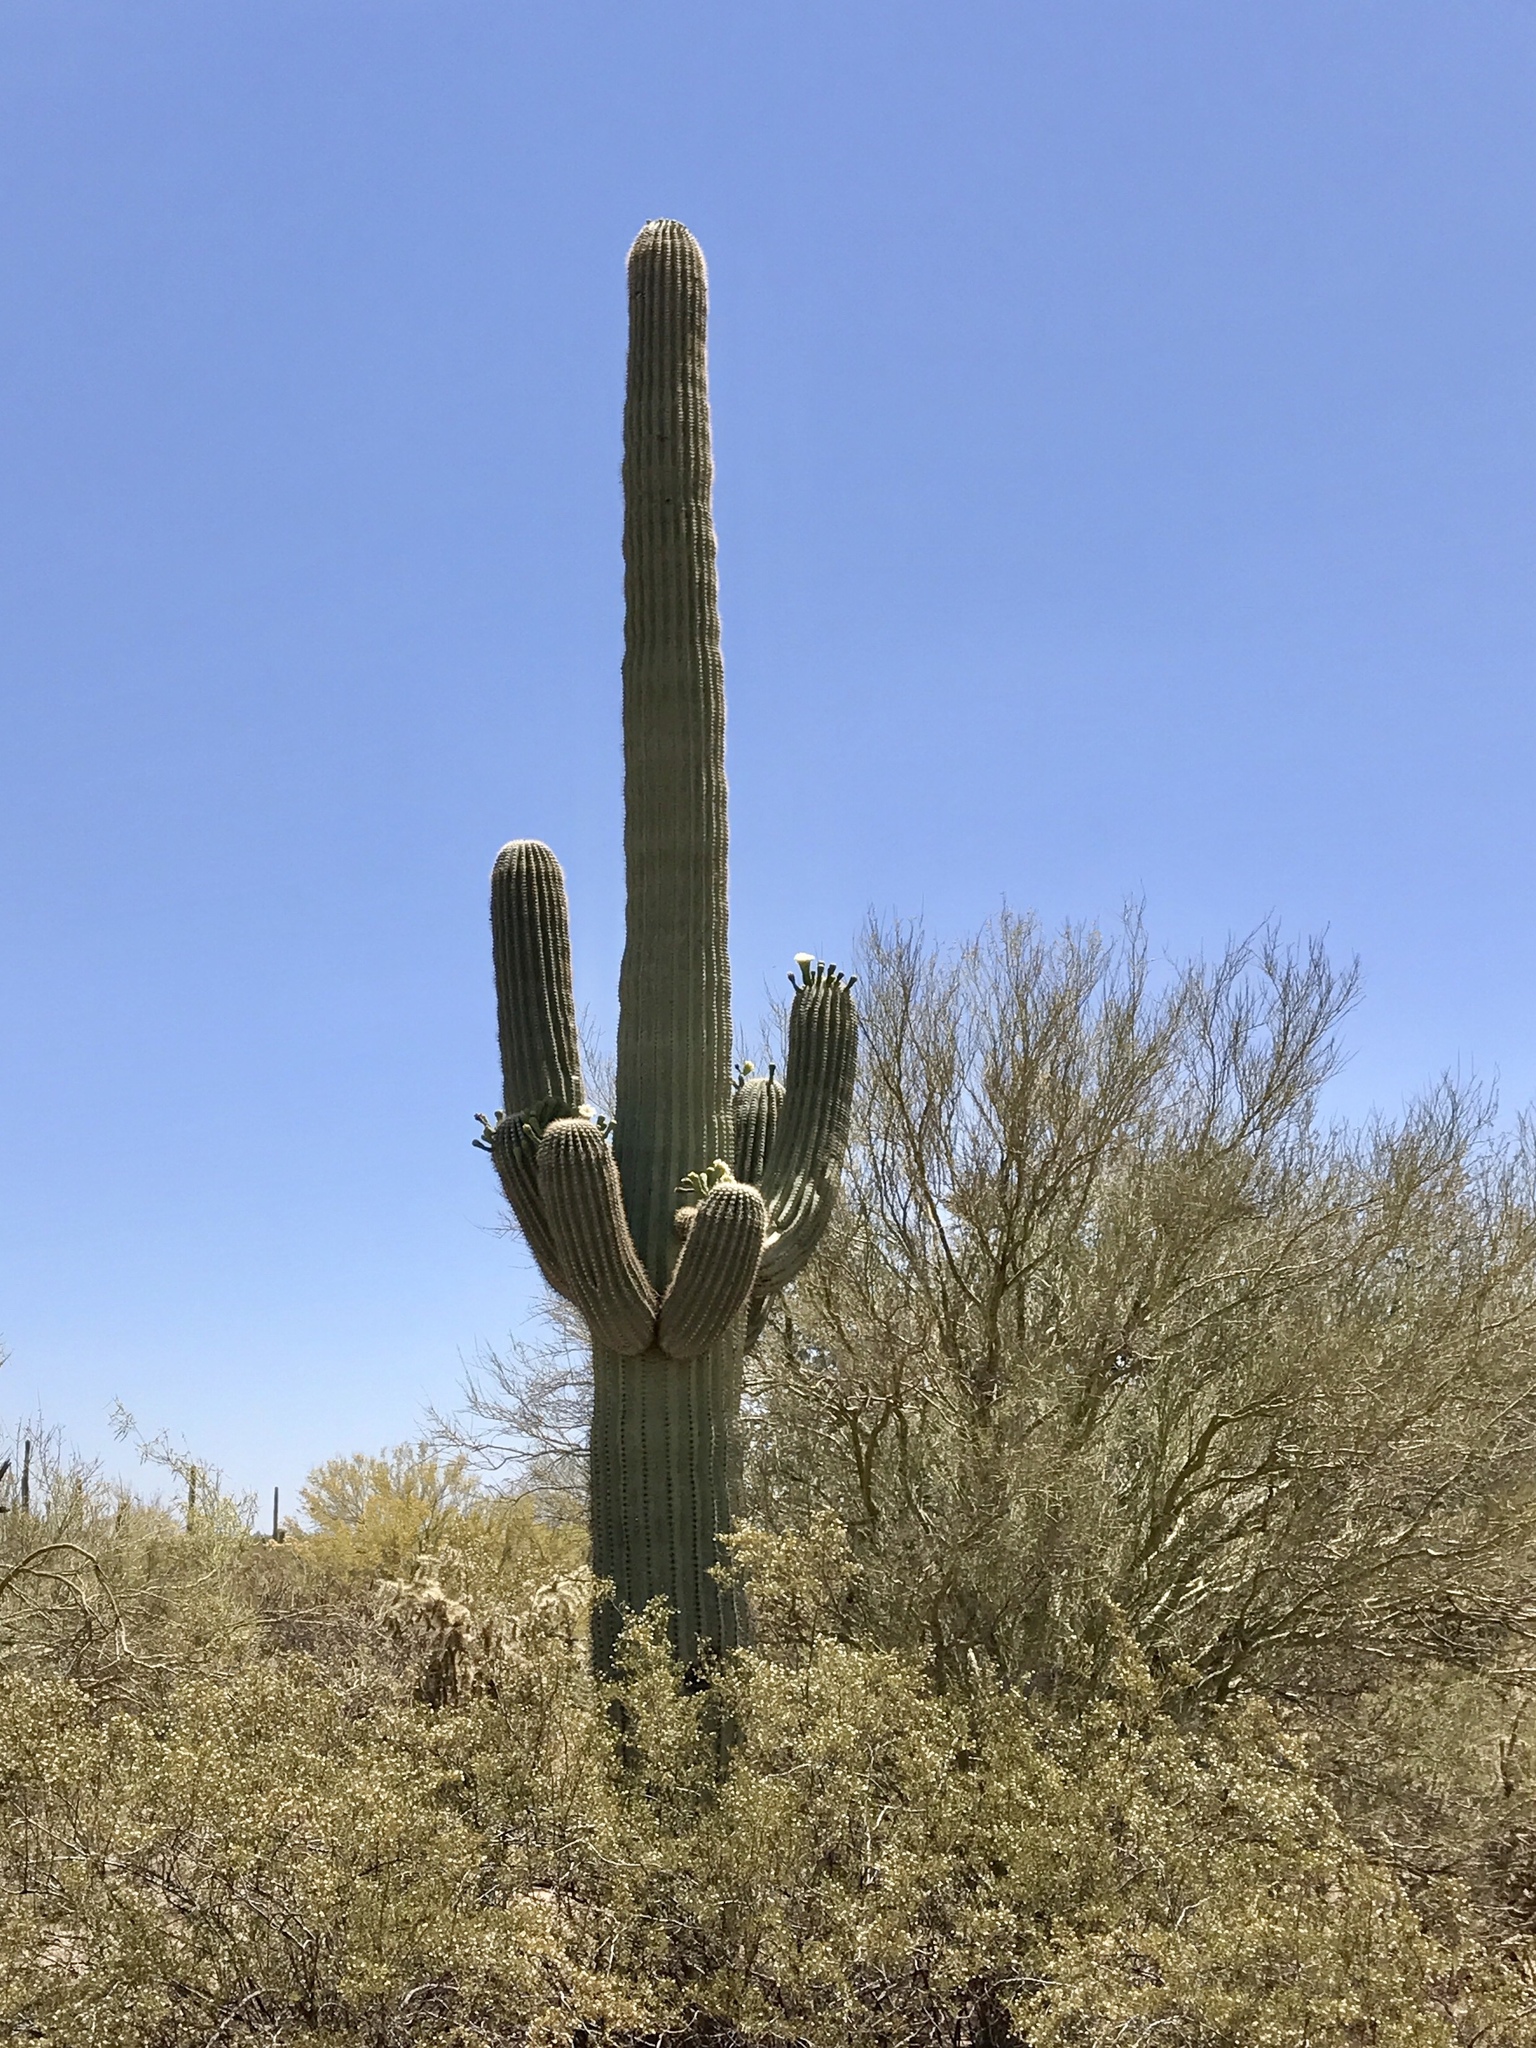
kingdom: Plantae
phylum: Tracheophyta
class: Magnoliopsida
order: Caryophyllales
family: Cactaceae
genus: Carnegiea
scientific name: Carnegiea gigantea
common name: Saguaro
